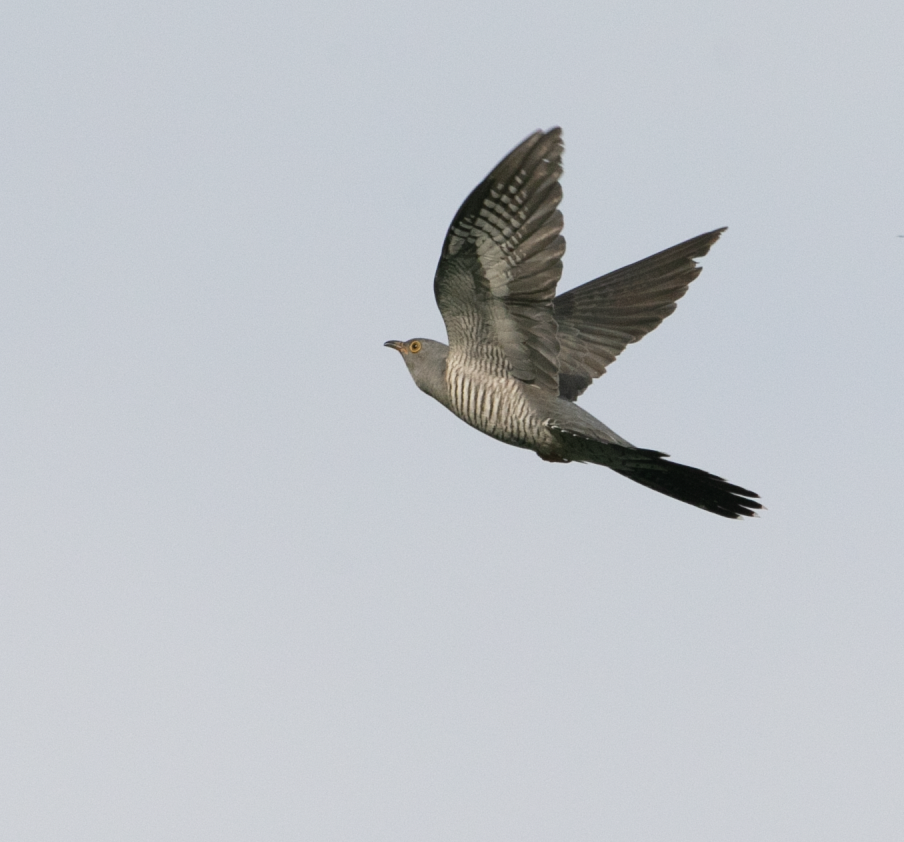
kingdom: Animalia
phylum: Chordata
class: Aves
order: Cuculiformes
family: Cuculidae
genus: Cuculus
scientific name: Cuculus canorus
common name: Common cuckoo
